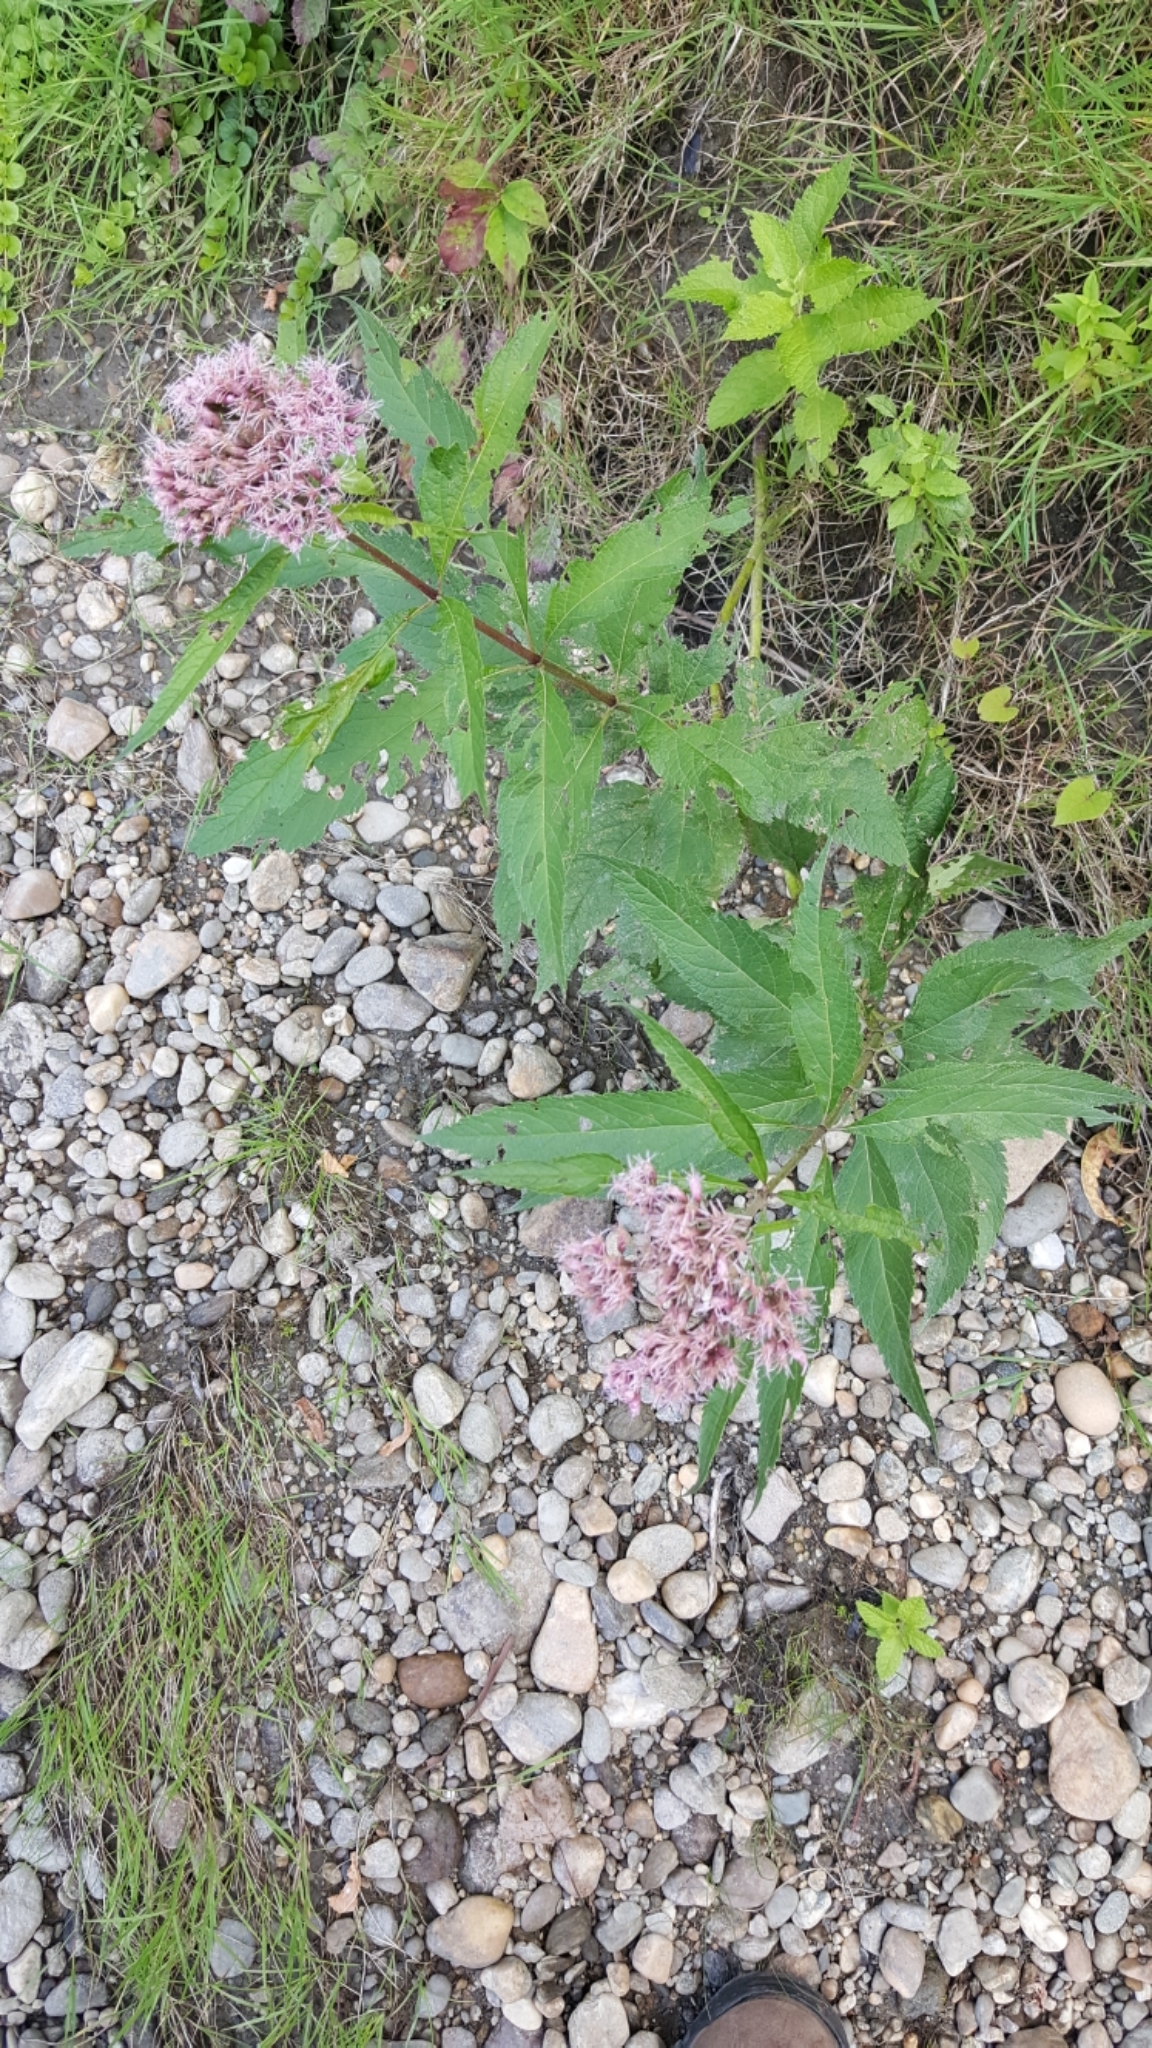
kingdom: Plantae
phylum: Tracheophyta
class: Magnoliopsida
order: Asterales
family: Asteraceae
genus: Eutrochium
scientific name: Eutrochium maculatum
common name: Spotted joe pye weed
